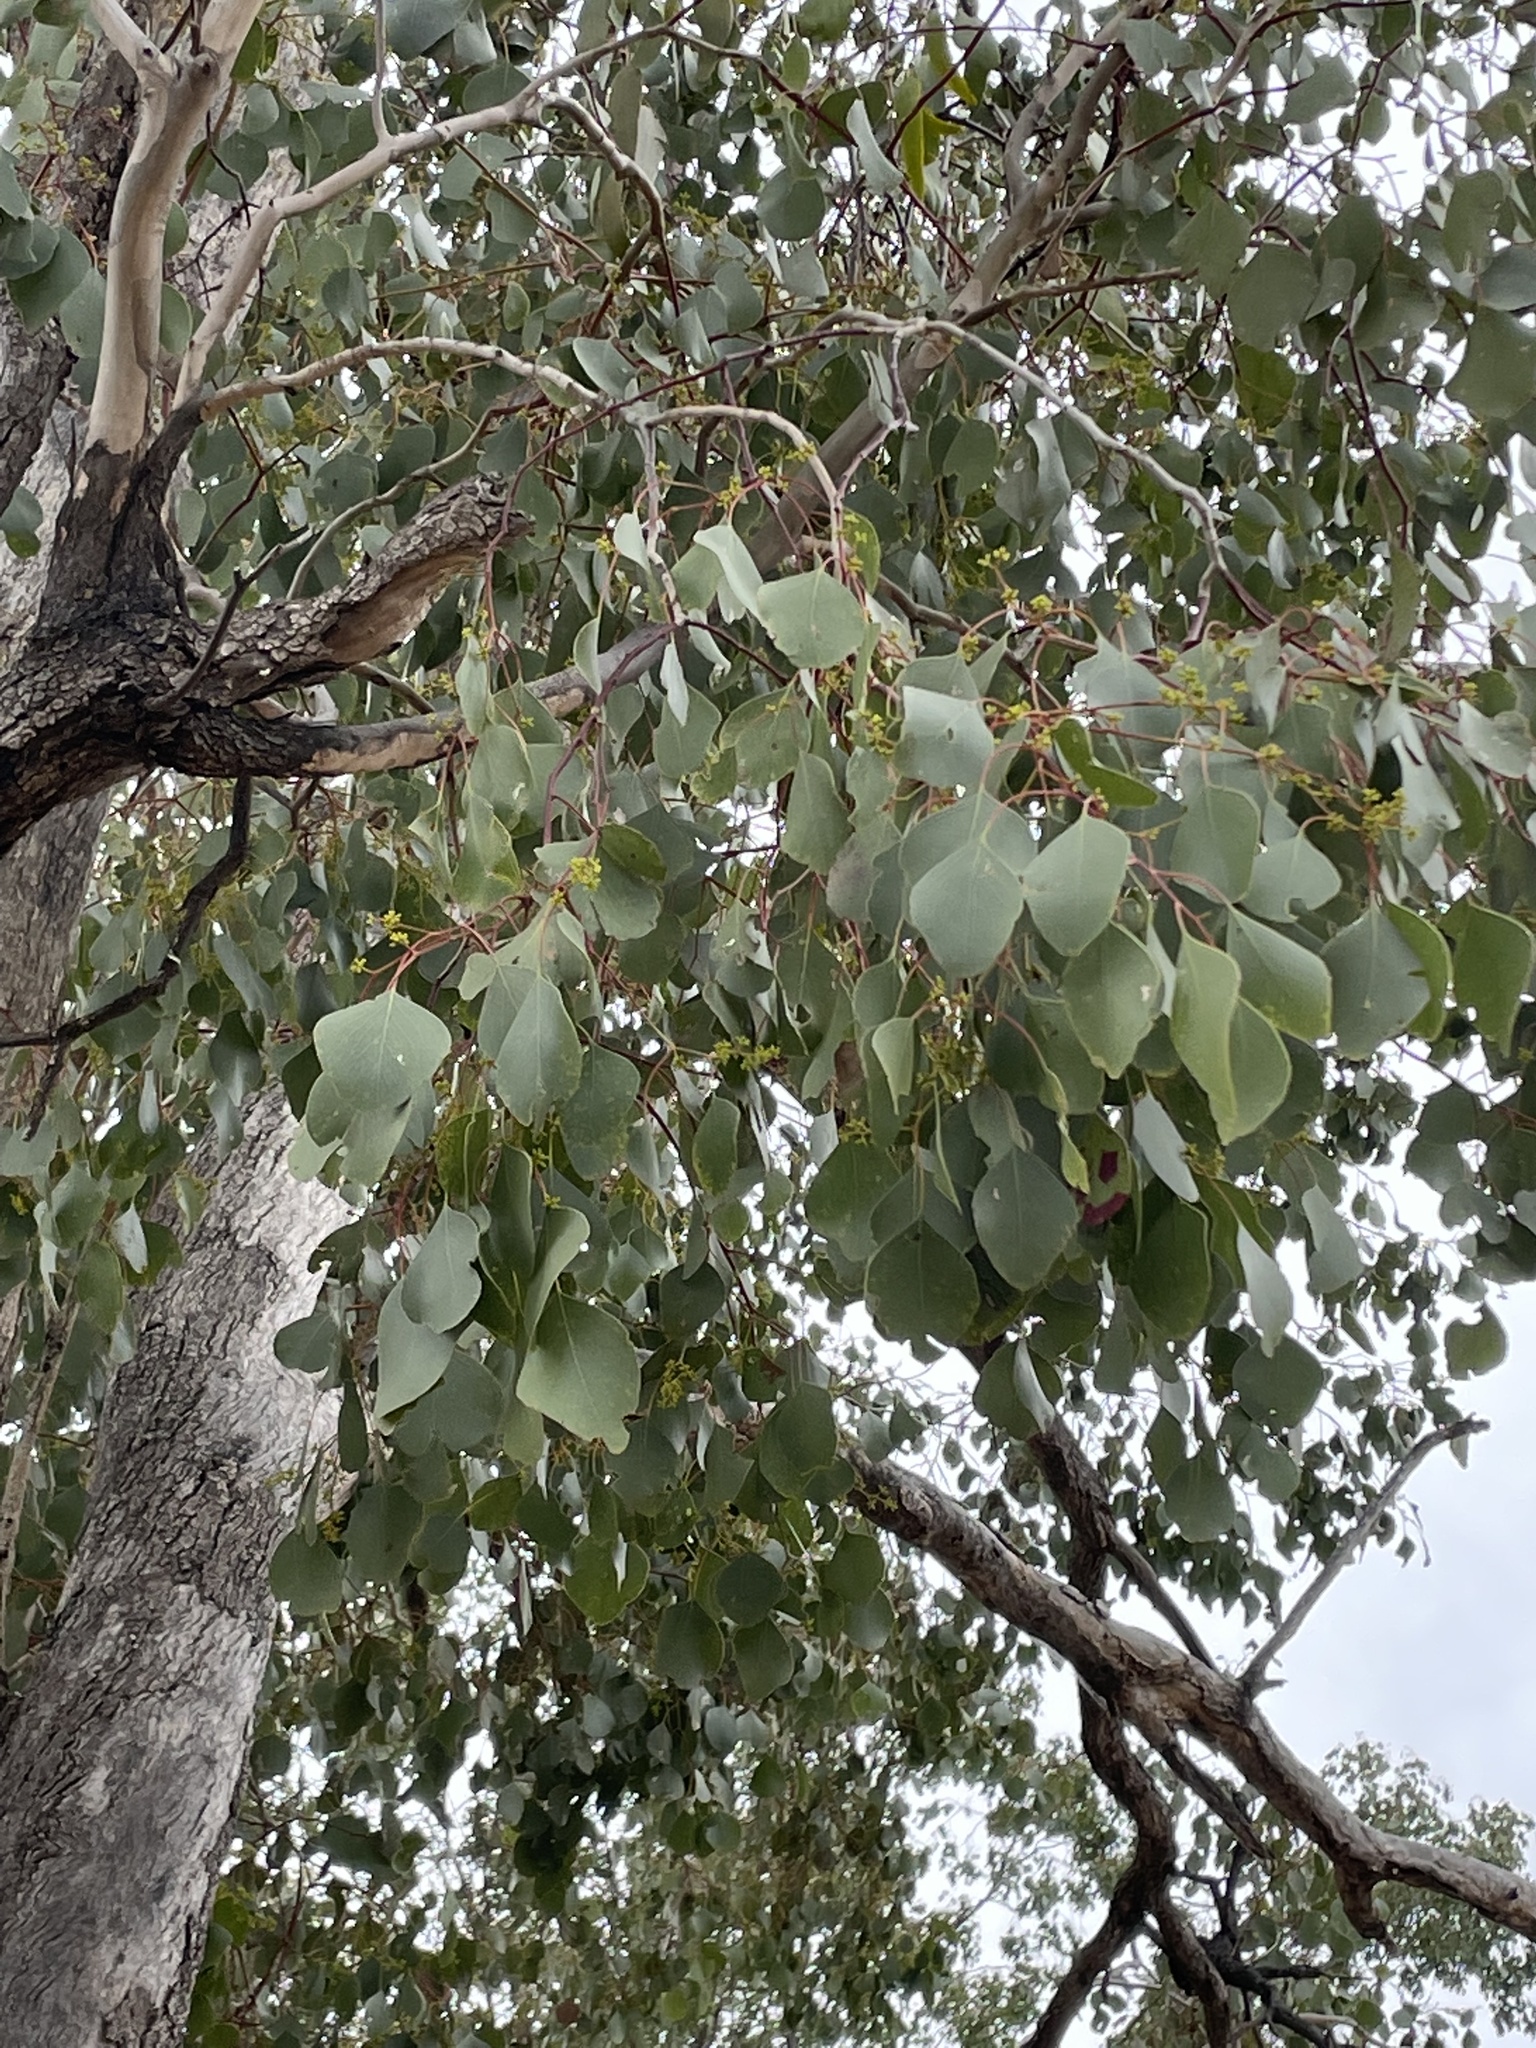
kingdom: Plantae
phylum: Tracheophyta
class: Magnoliopsida
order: Myrtales
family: Myrtaceae
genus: Eucalyptus
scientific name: Eucalyptus populnea
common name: Bimble box
